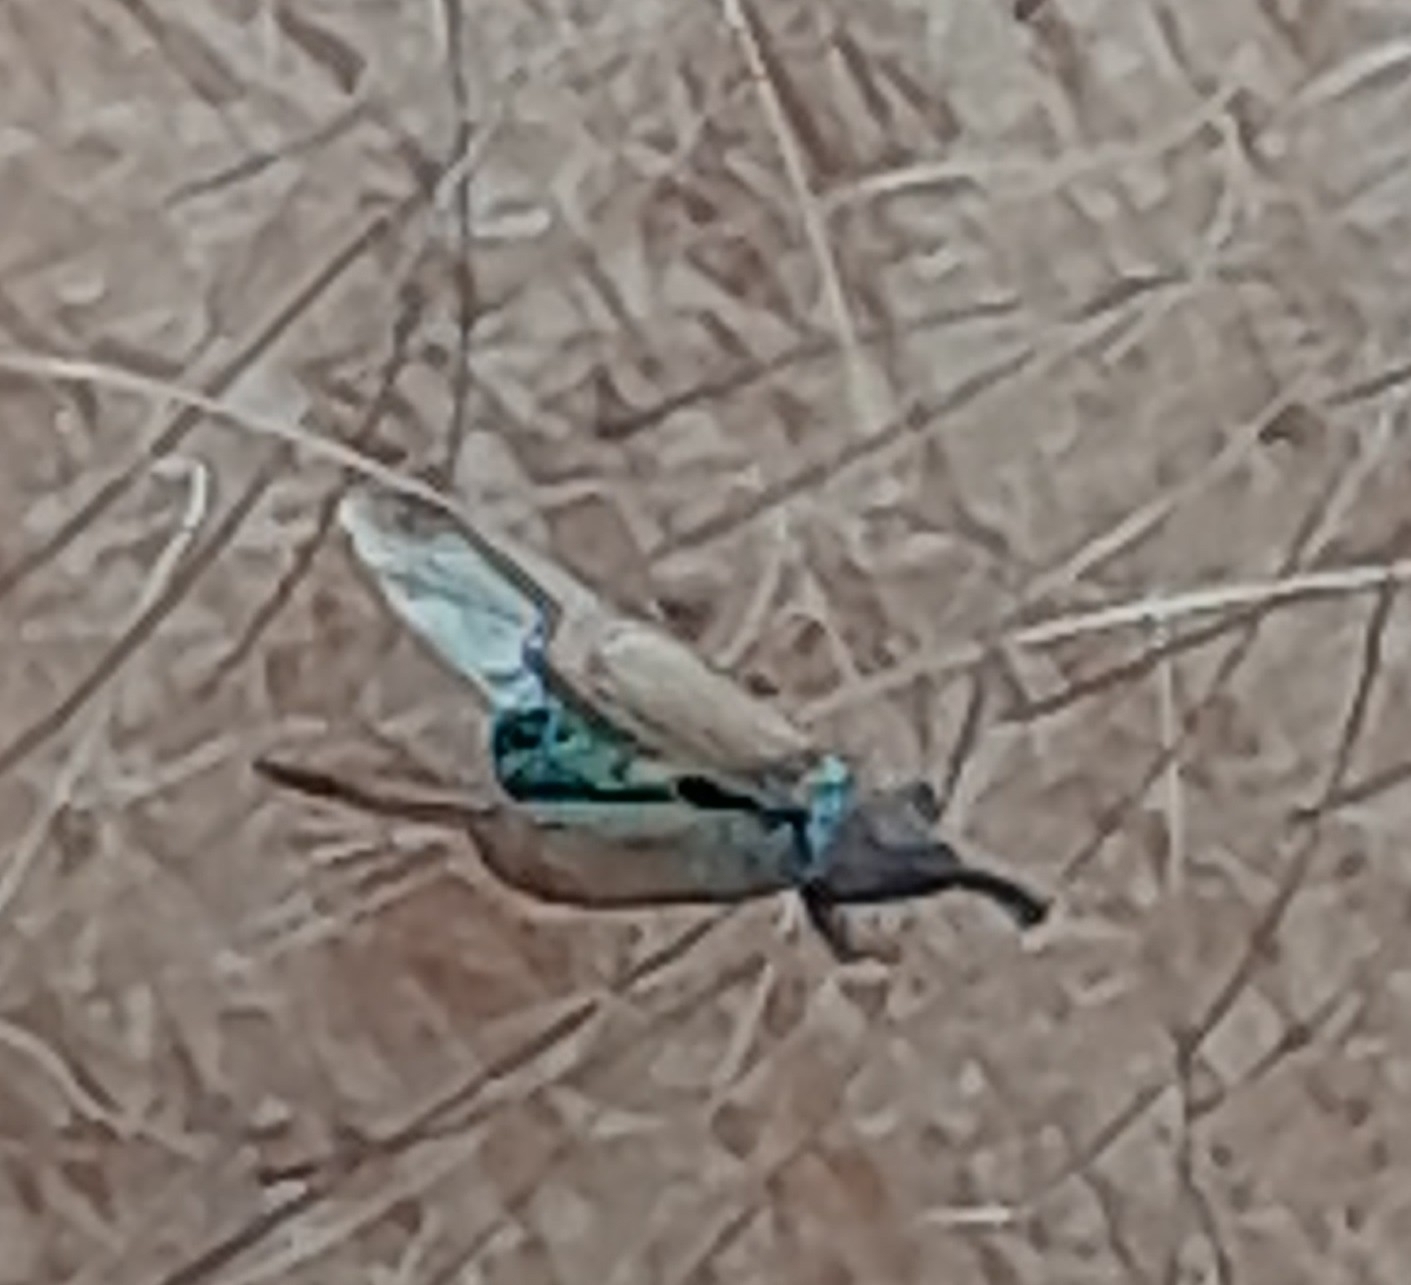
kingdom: Animalia
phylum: Arthropoda
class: Insecta
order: Coleoptera
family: Curculionidae
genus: Magdalis
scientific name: Magdalis rufa
